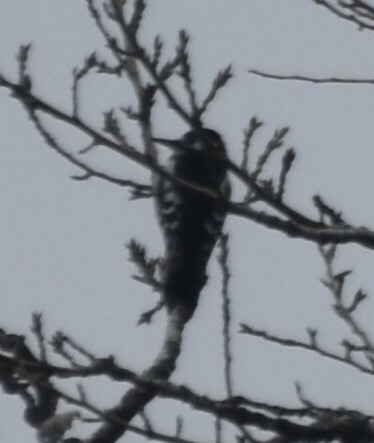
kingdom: Animalia
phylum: Chordata
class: Aves
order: Piciformes
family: Picidae
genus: Dendrocopos
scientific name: Dendrocopos major
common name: Great spotted woodpecker
